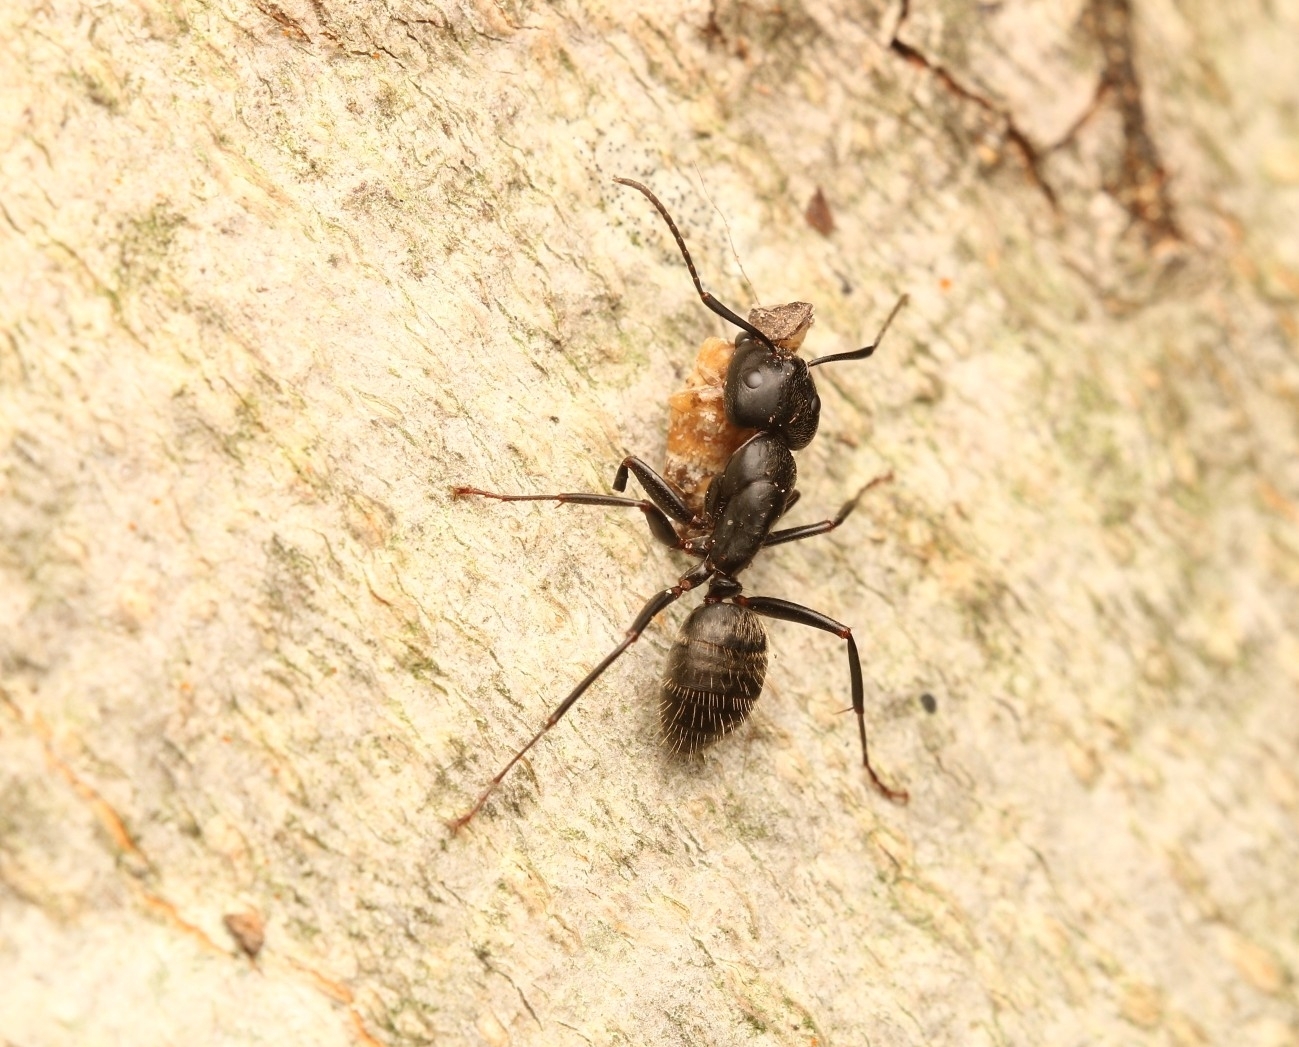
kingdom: Animalia
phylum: Arthropoda
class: Insecta
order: Hymenoptera
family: Formicidae
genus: Camponotus
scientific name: Camponotus pennsylvanicus
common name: Black carpenter ant
